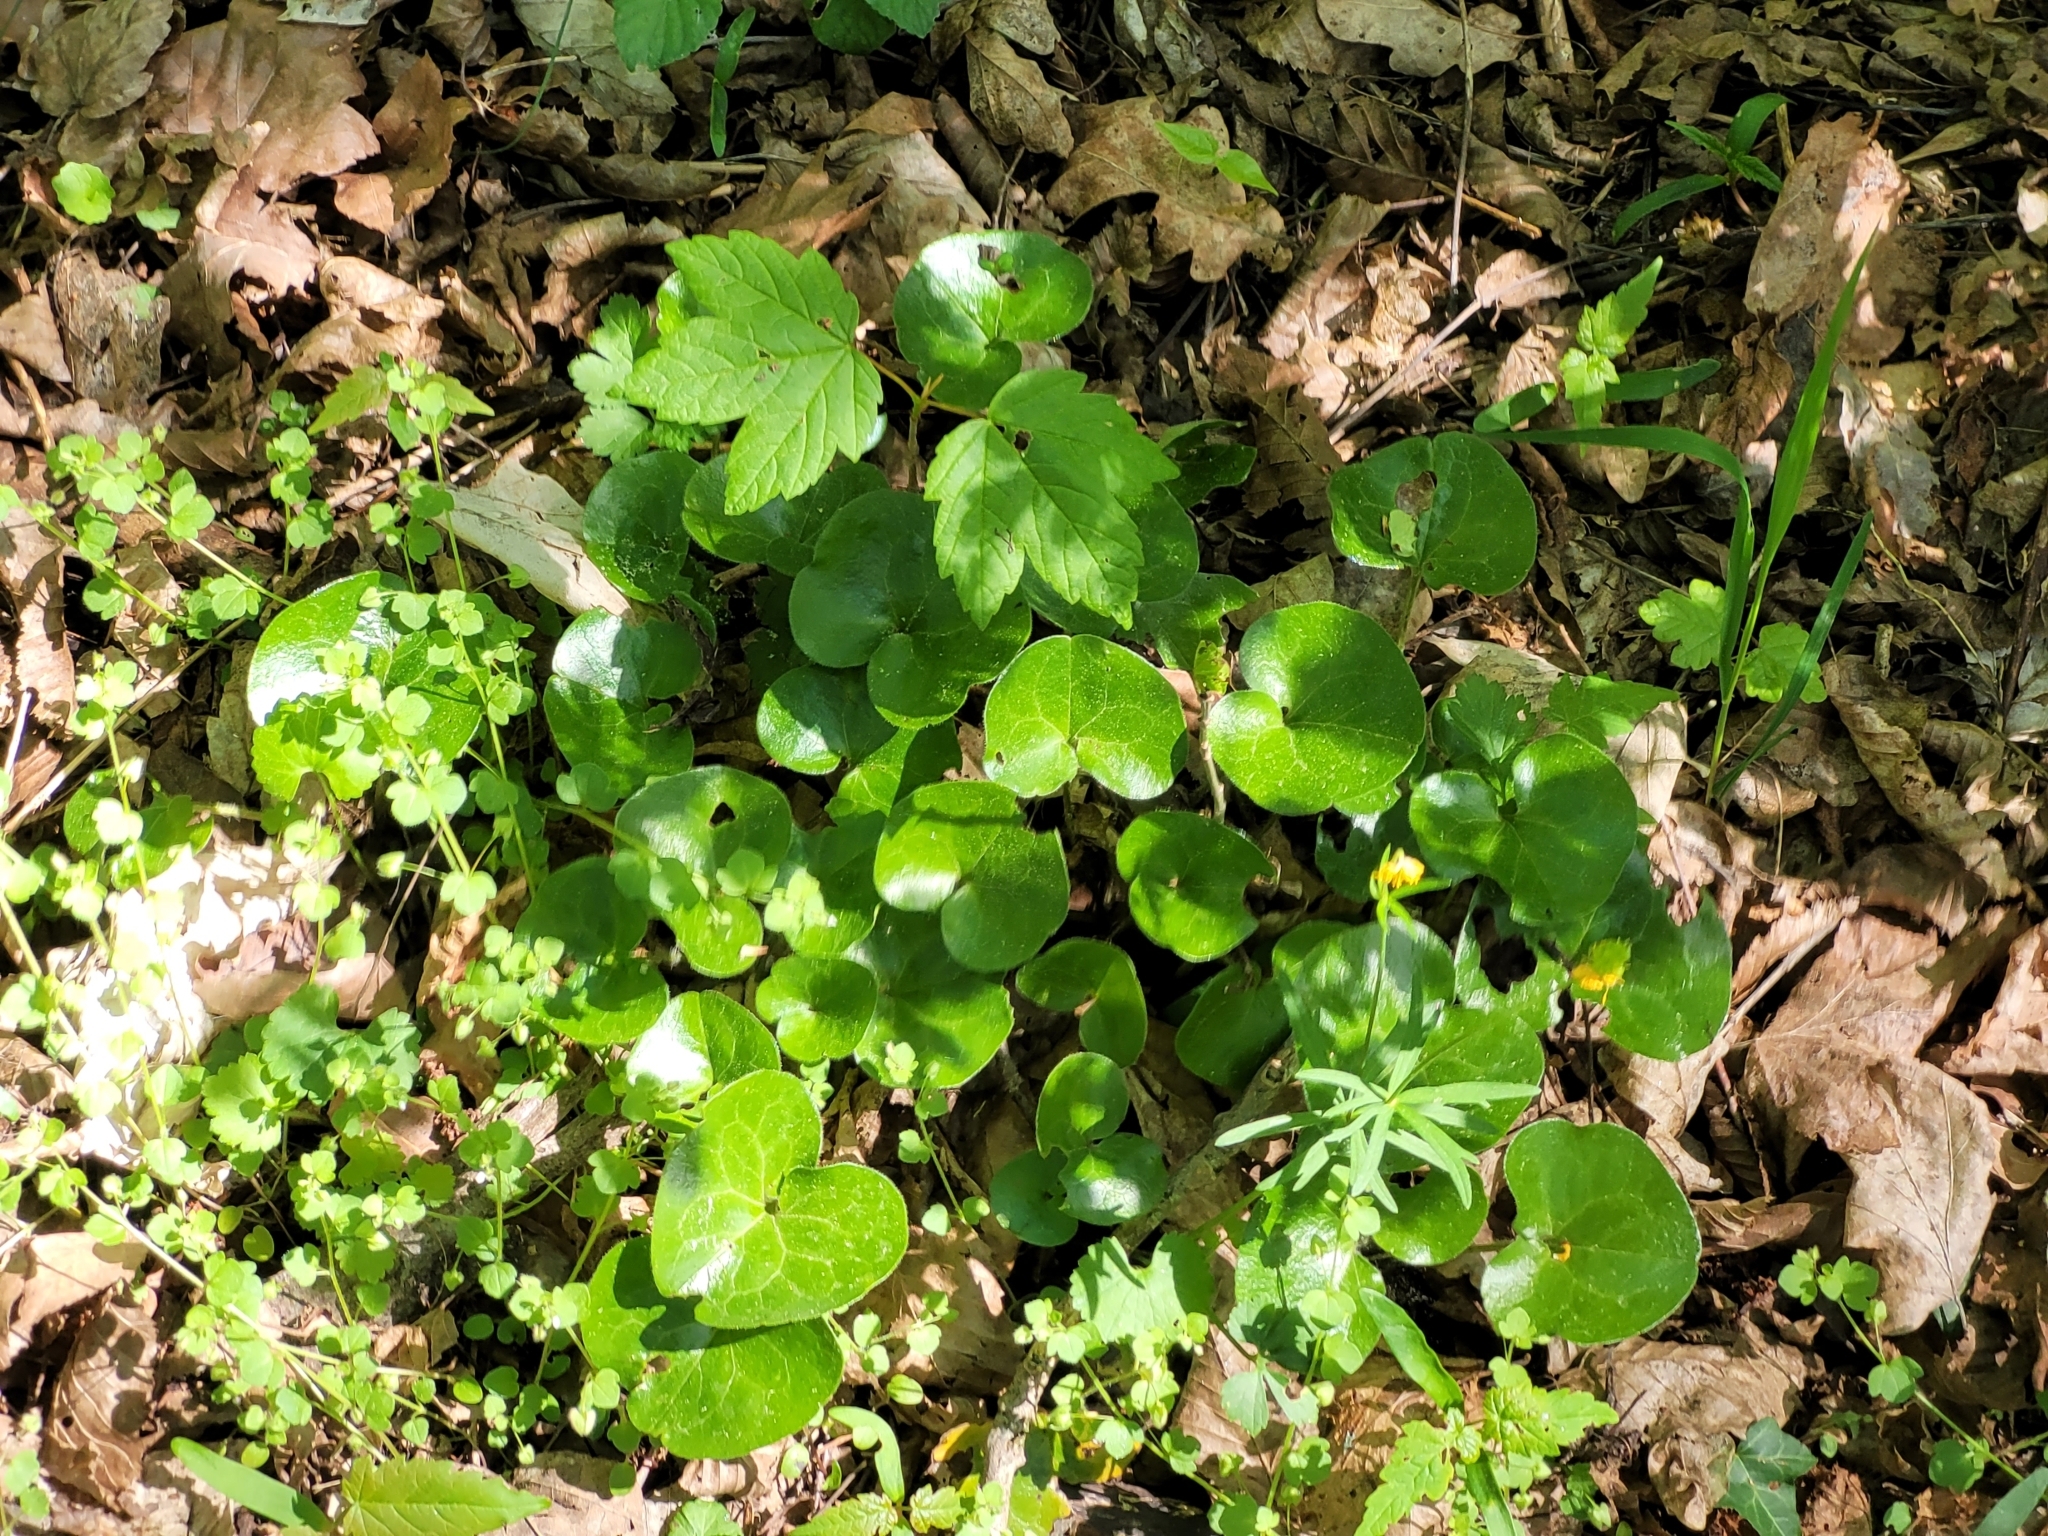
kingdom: Plantae
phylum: Tracheophyta
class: Magnoliopsida
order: Piperales
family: Aristolochiaceae
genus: Asarum
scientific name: Asarum europaeum
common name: Asarabacca
